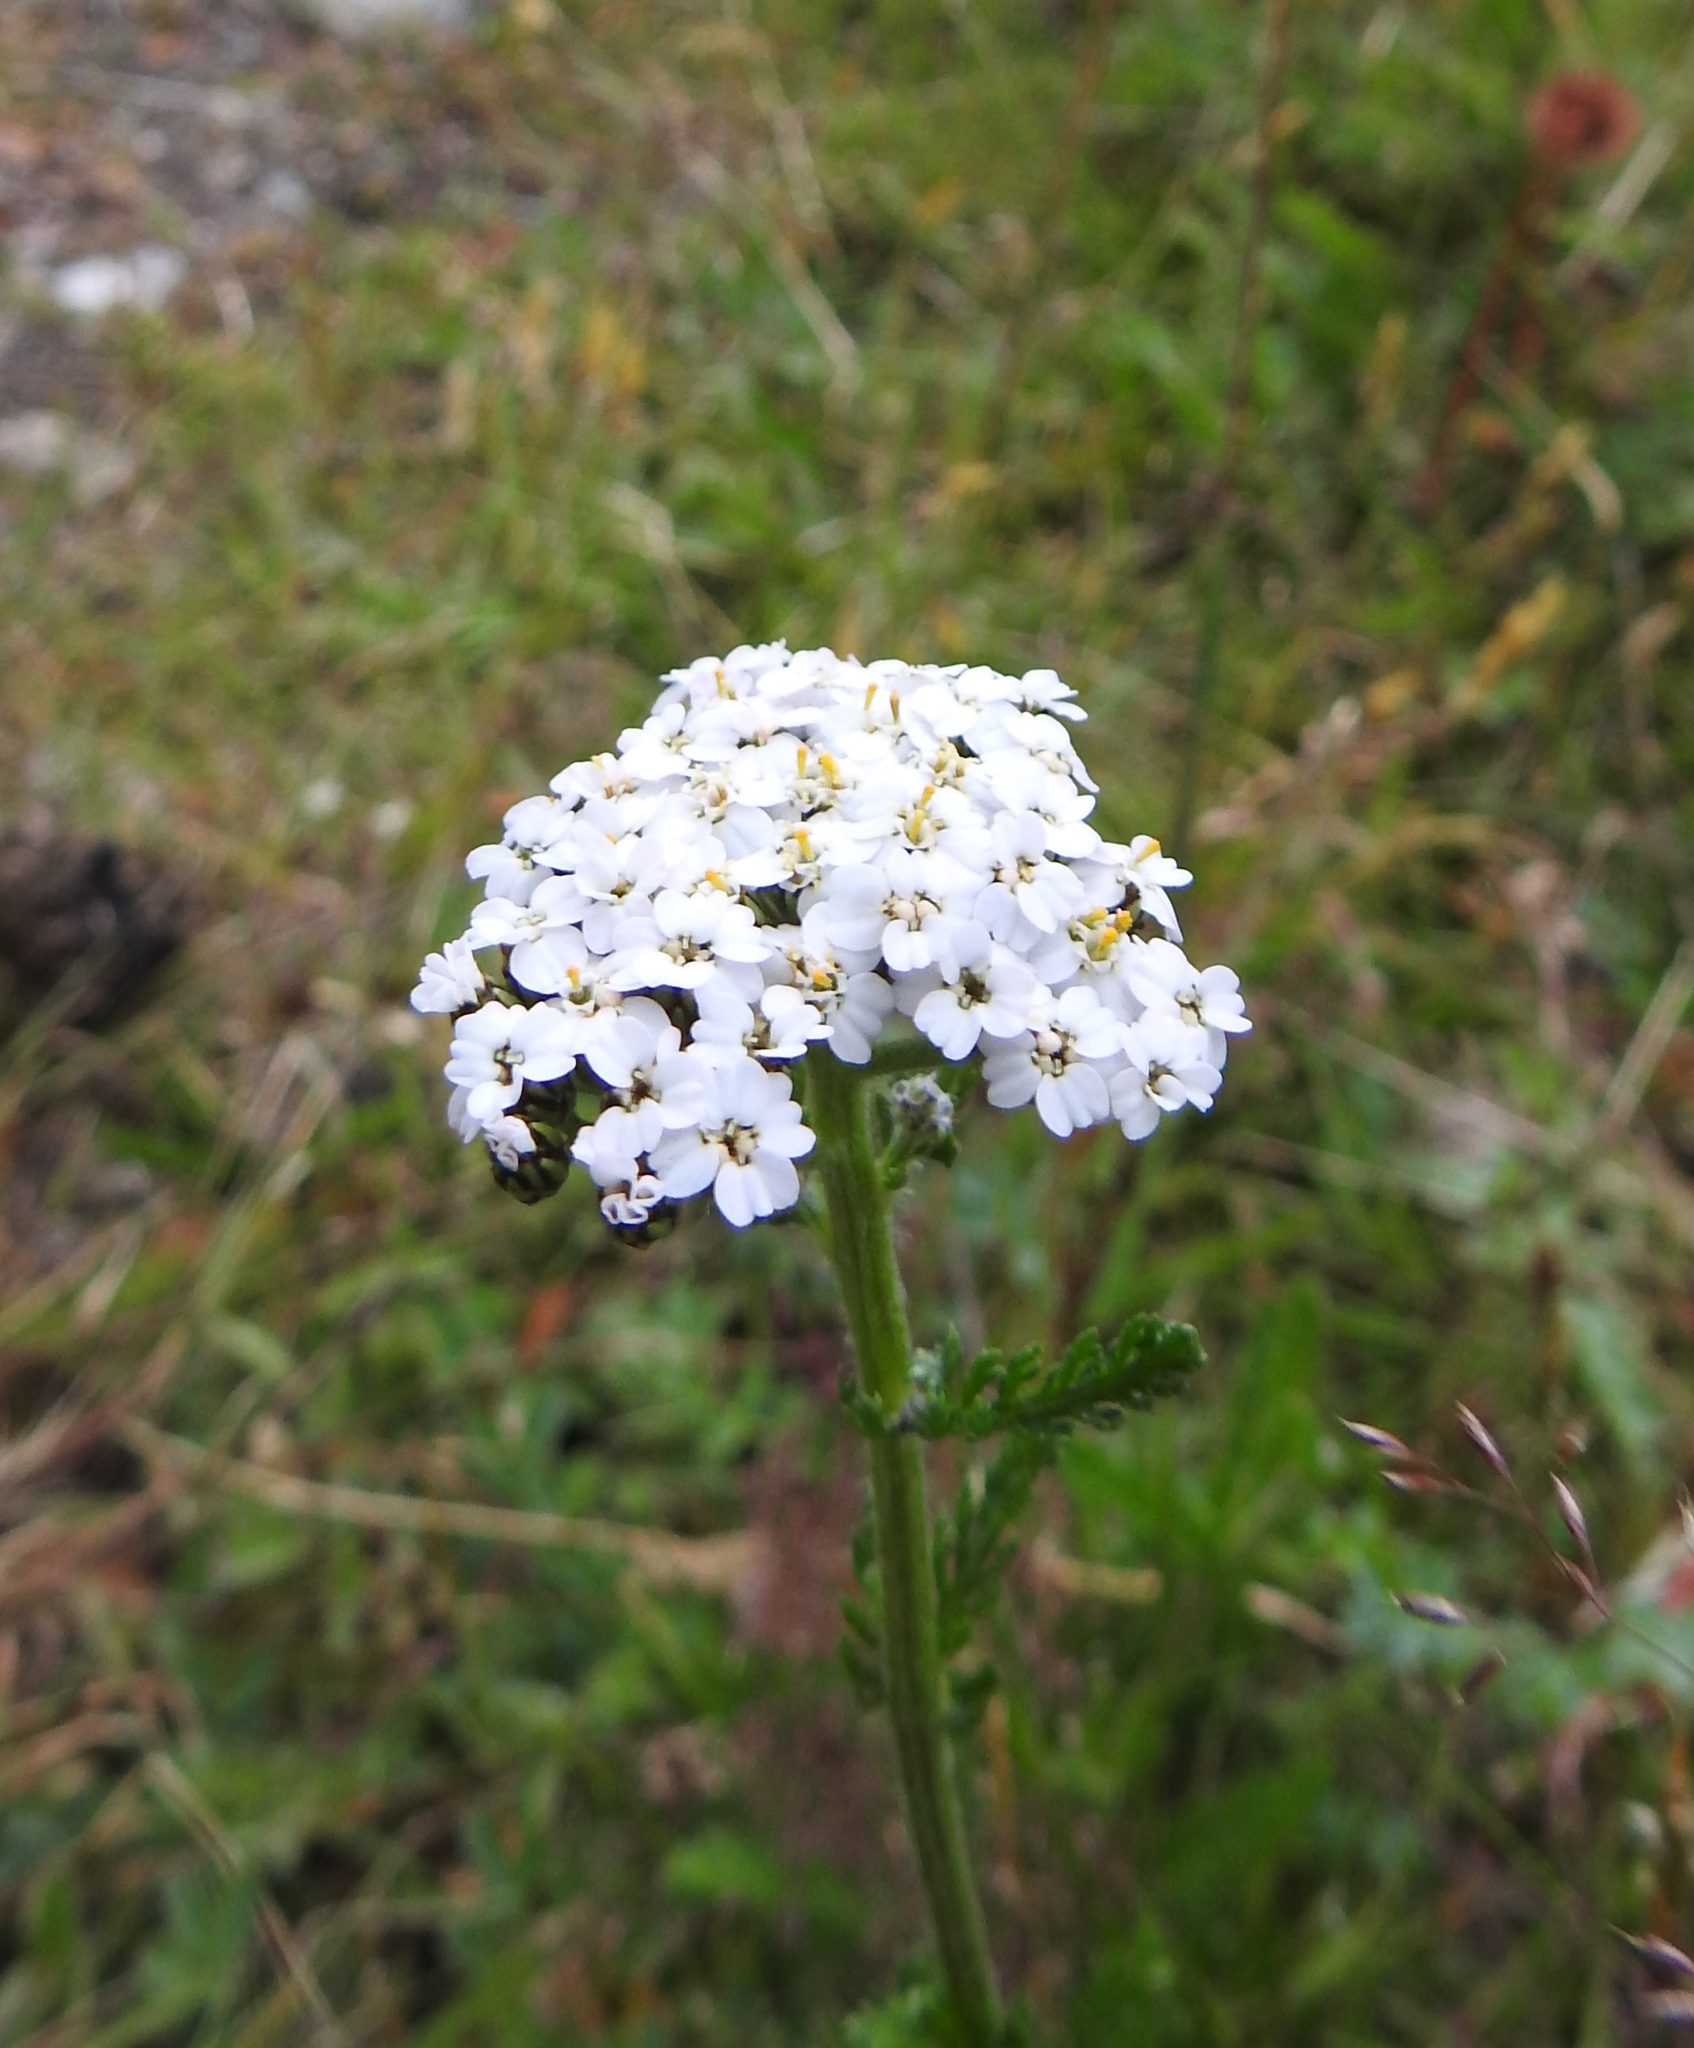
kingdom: Plantae
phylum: Tracheophyta
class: Magnoliopsida
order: Asterales
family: Asteraceae
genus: Achillea
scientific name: Achillea millefolium
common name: Yarrow
